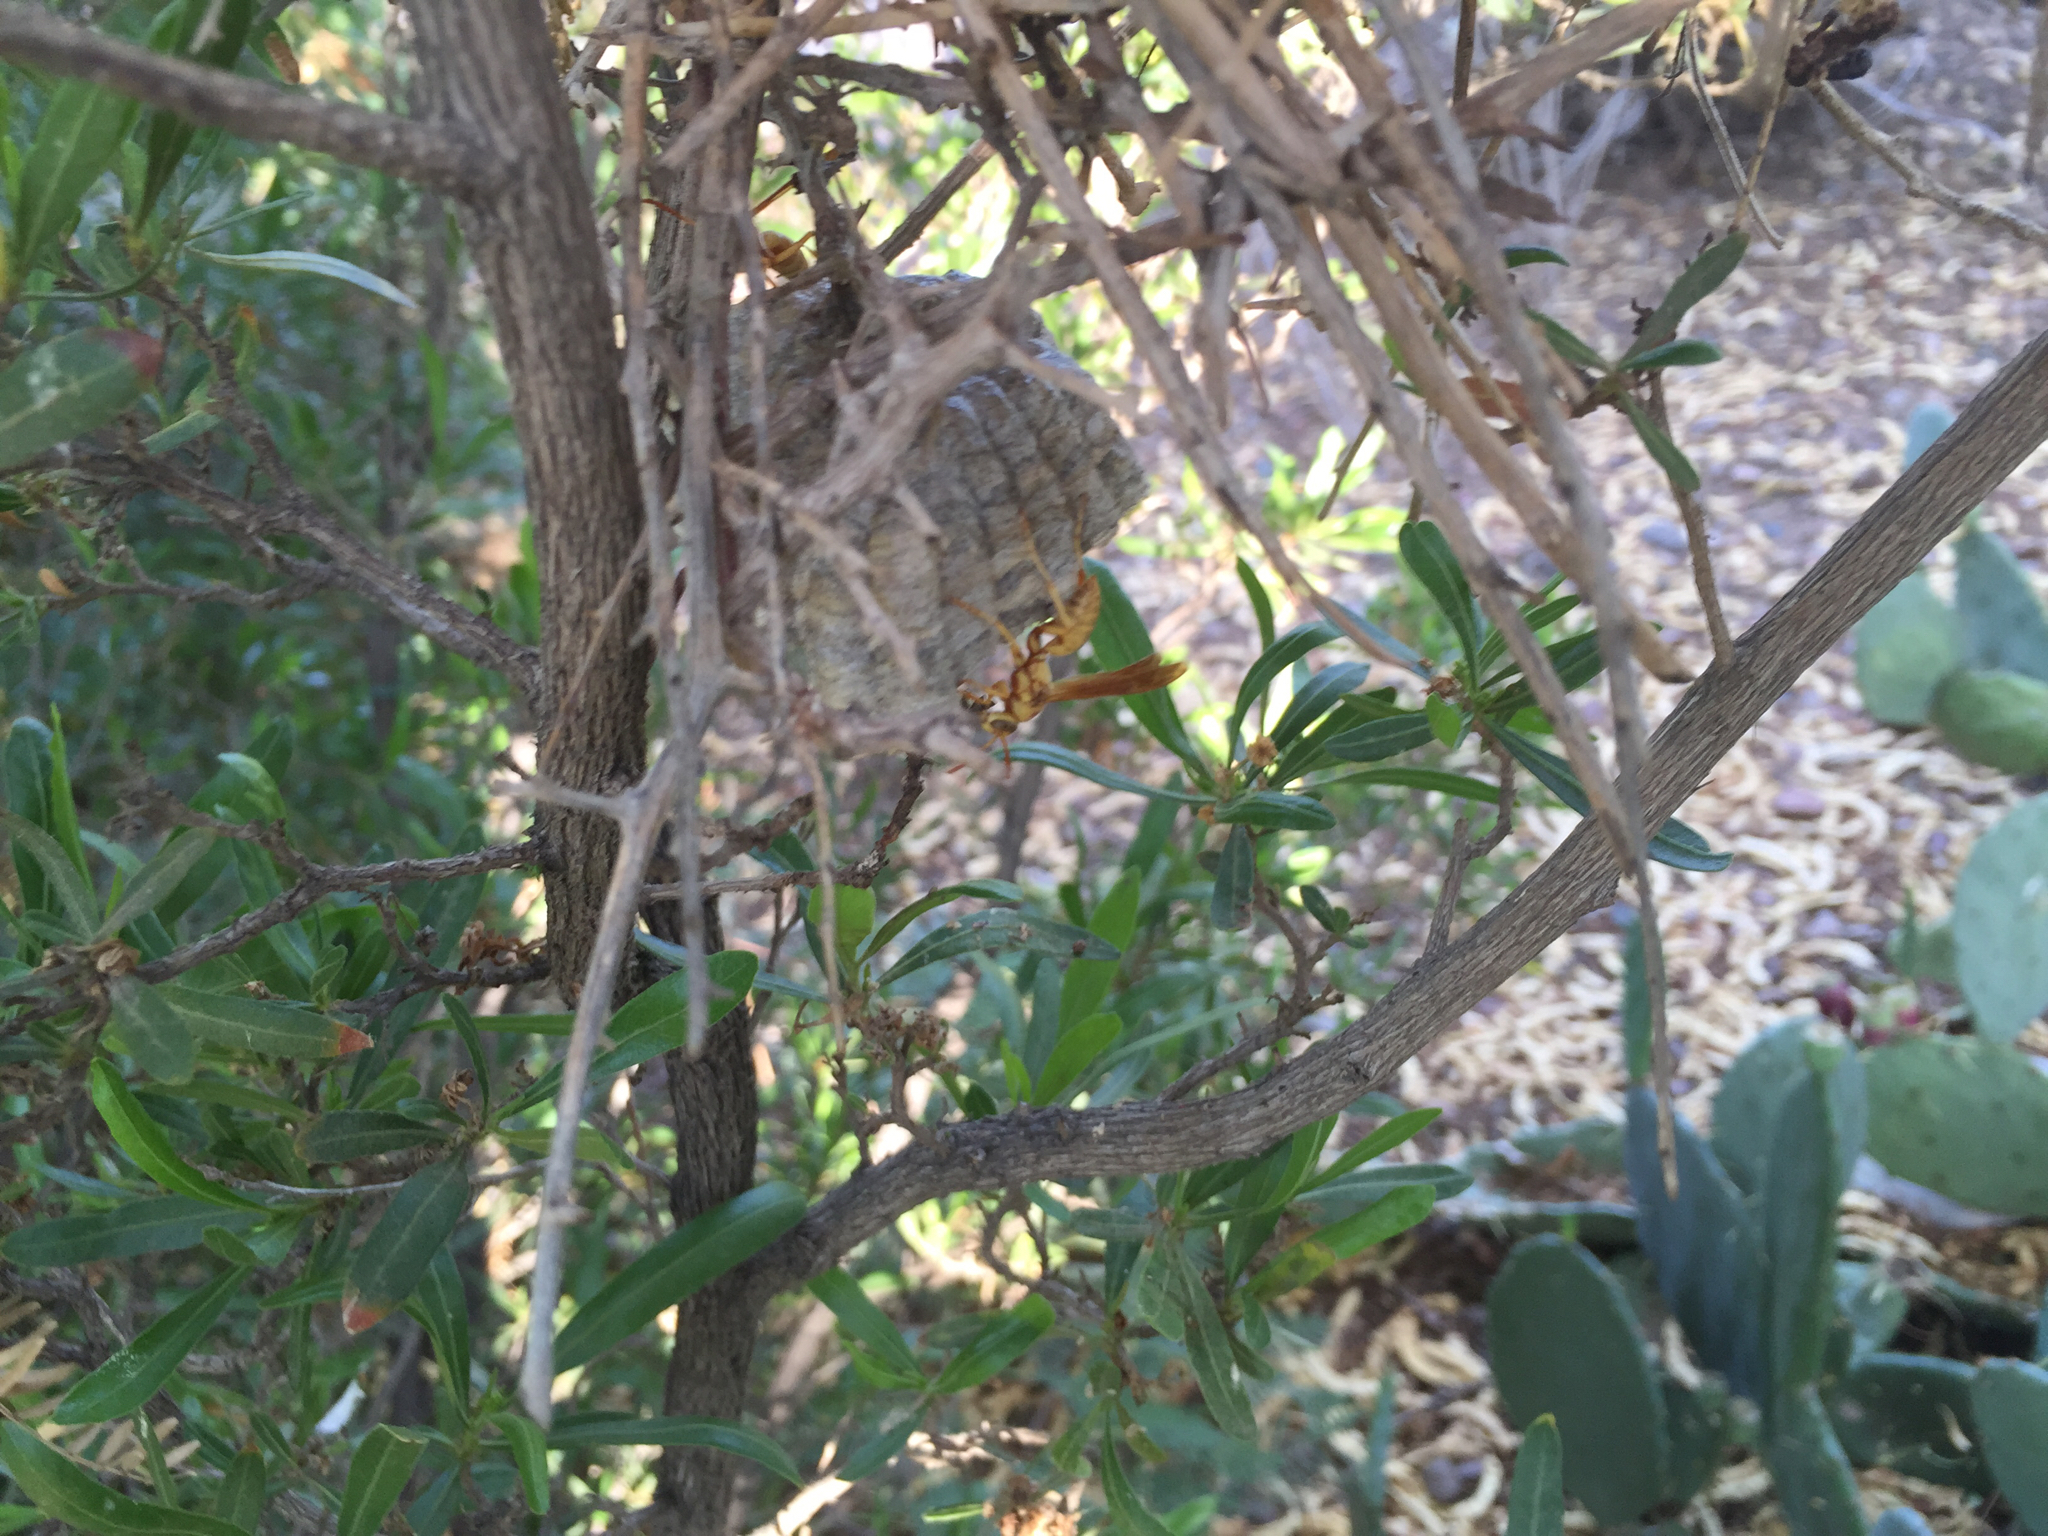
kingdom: Animalia
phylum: Arthropoda
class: Insecta
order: Hymenoptera
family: Eumenidae
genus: Polistes
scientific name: Polistes aurifer
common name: Paper wasp
